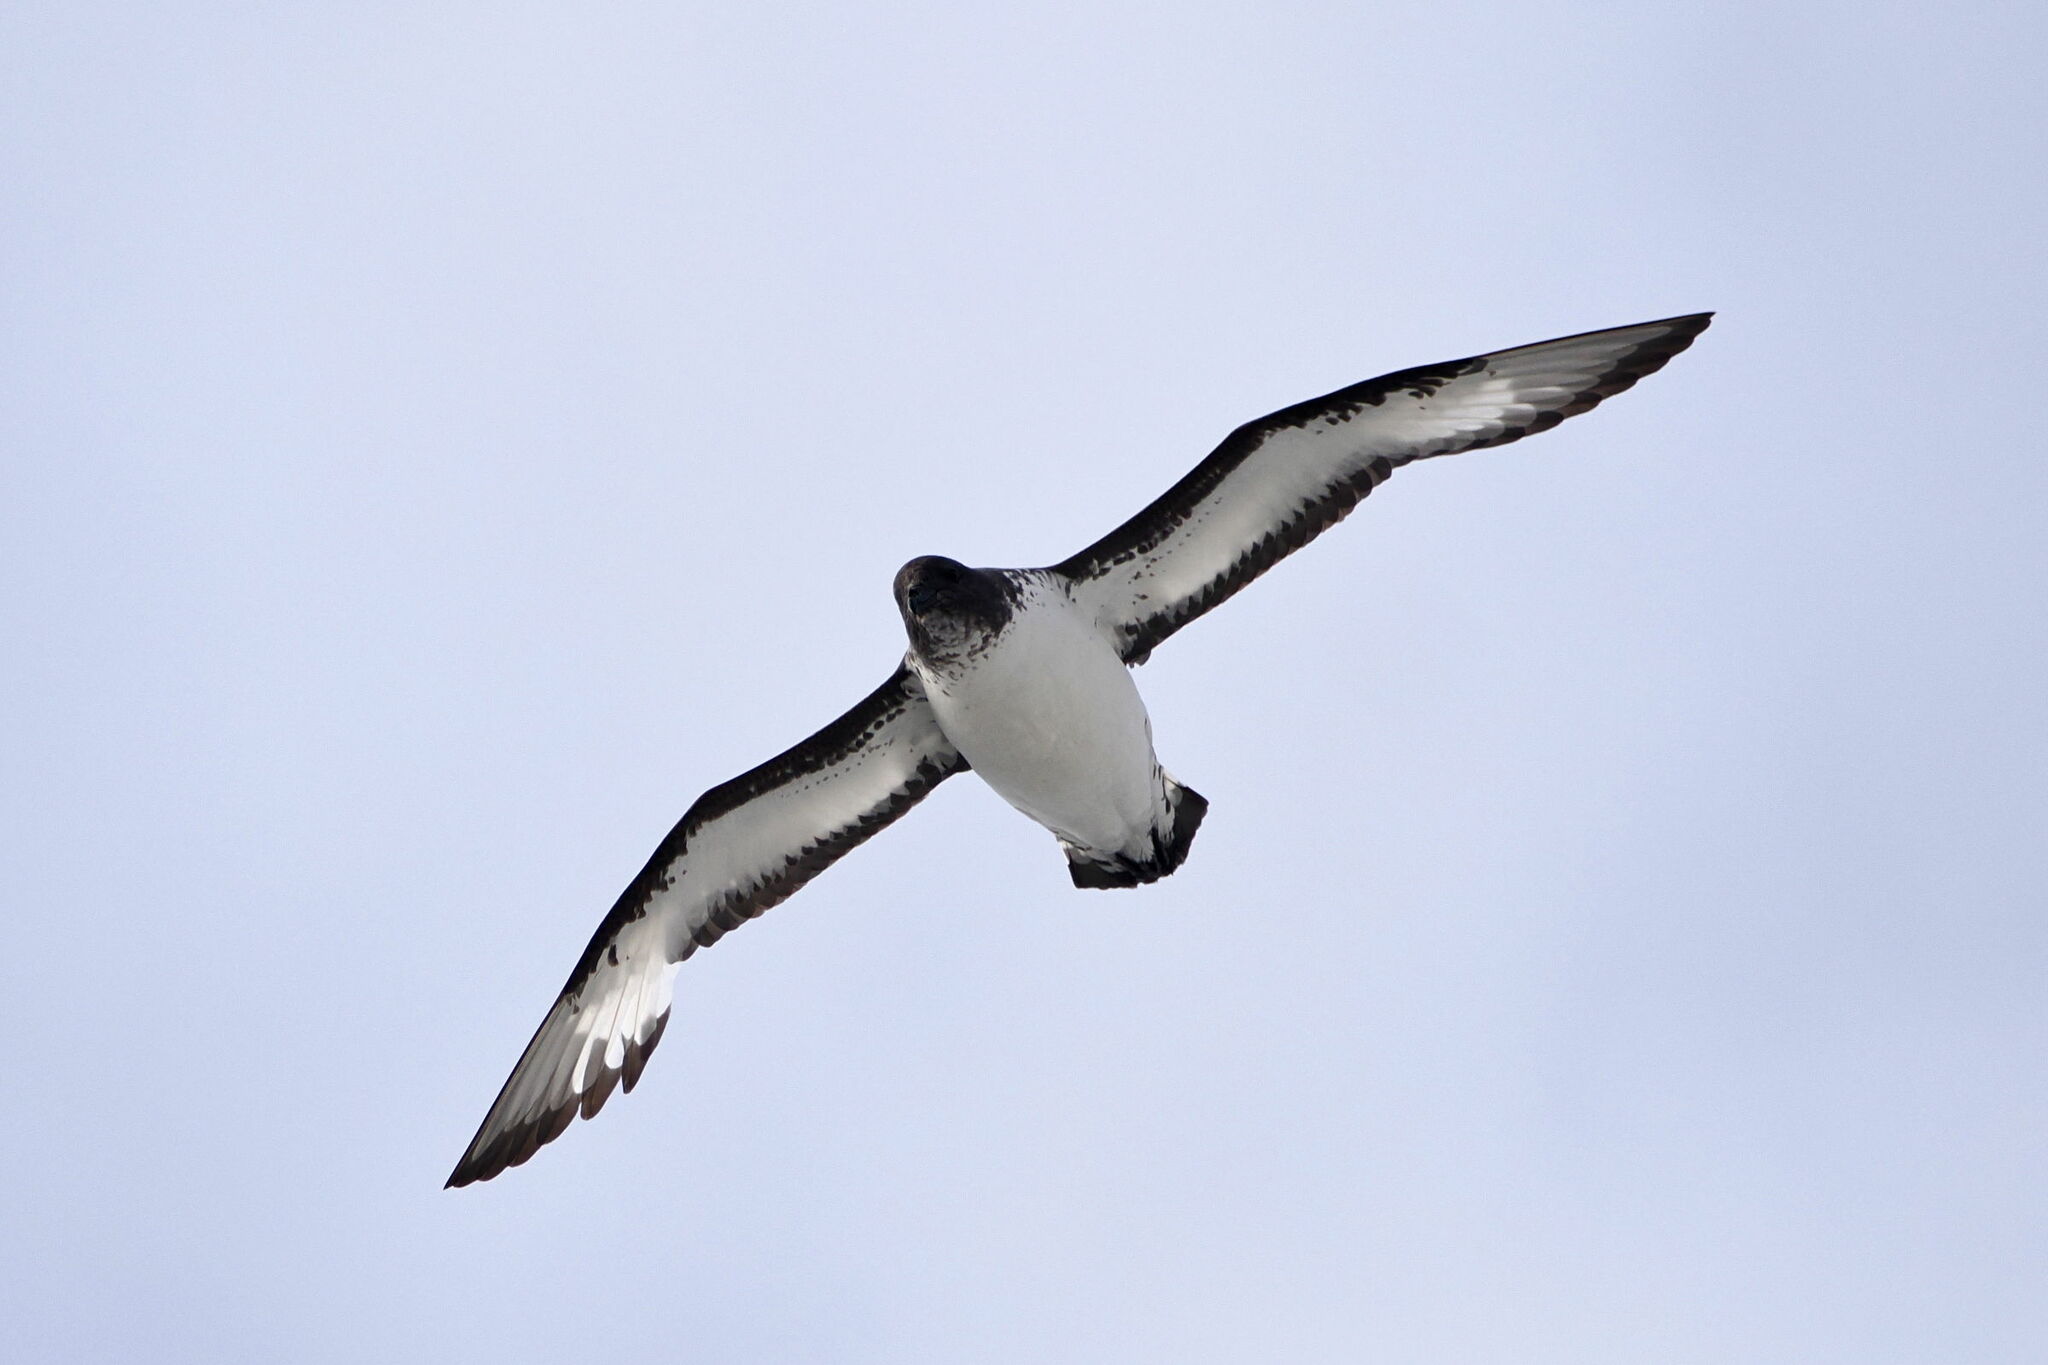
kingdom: Animalia
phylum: Chordata
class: Aves
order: Procellariiformes
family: Procellariidae
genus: Daption
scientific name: Daption capense
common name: Cape petrel
